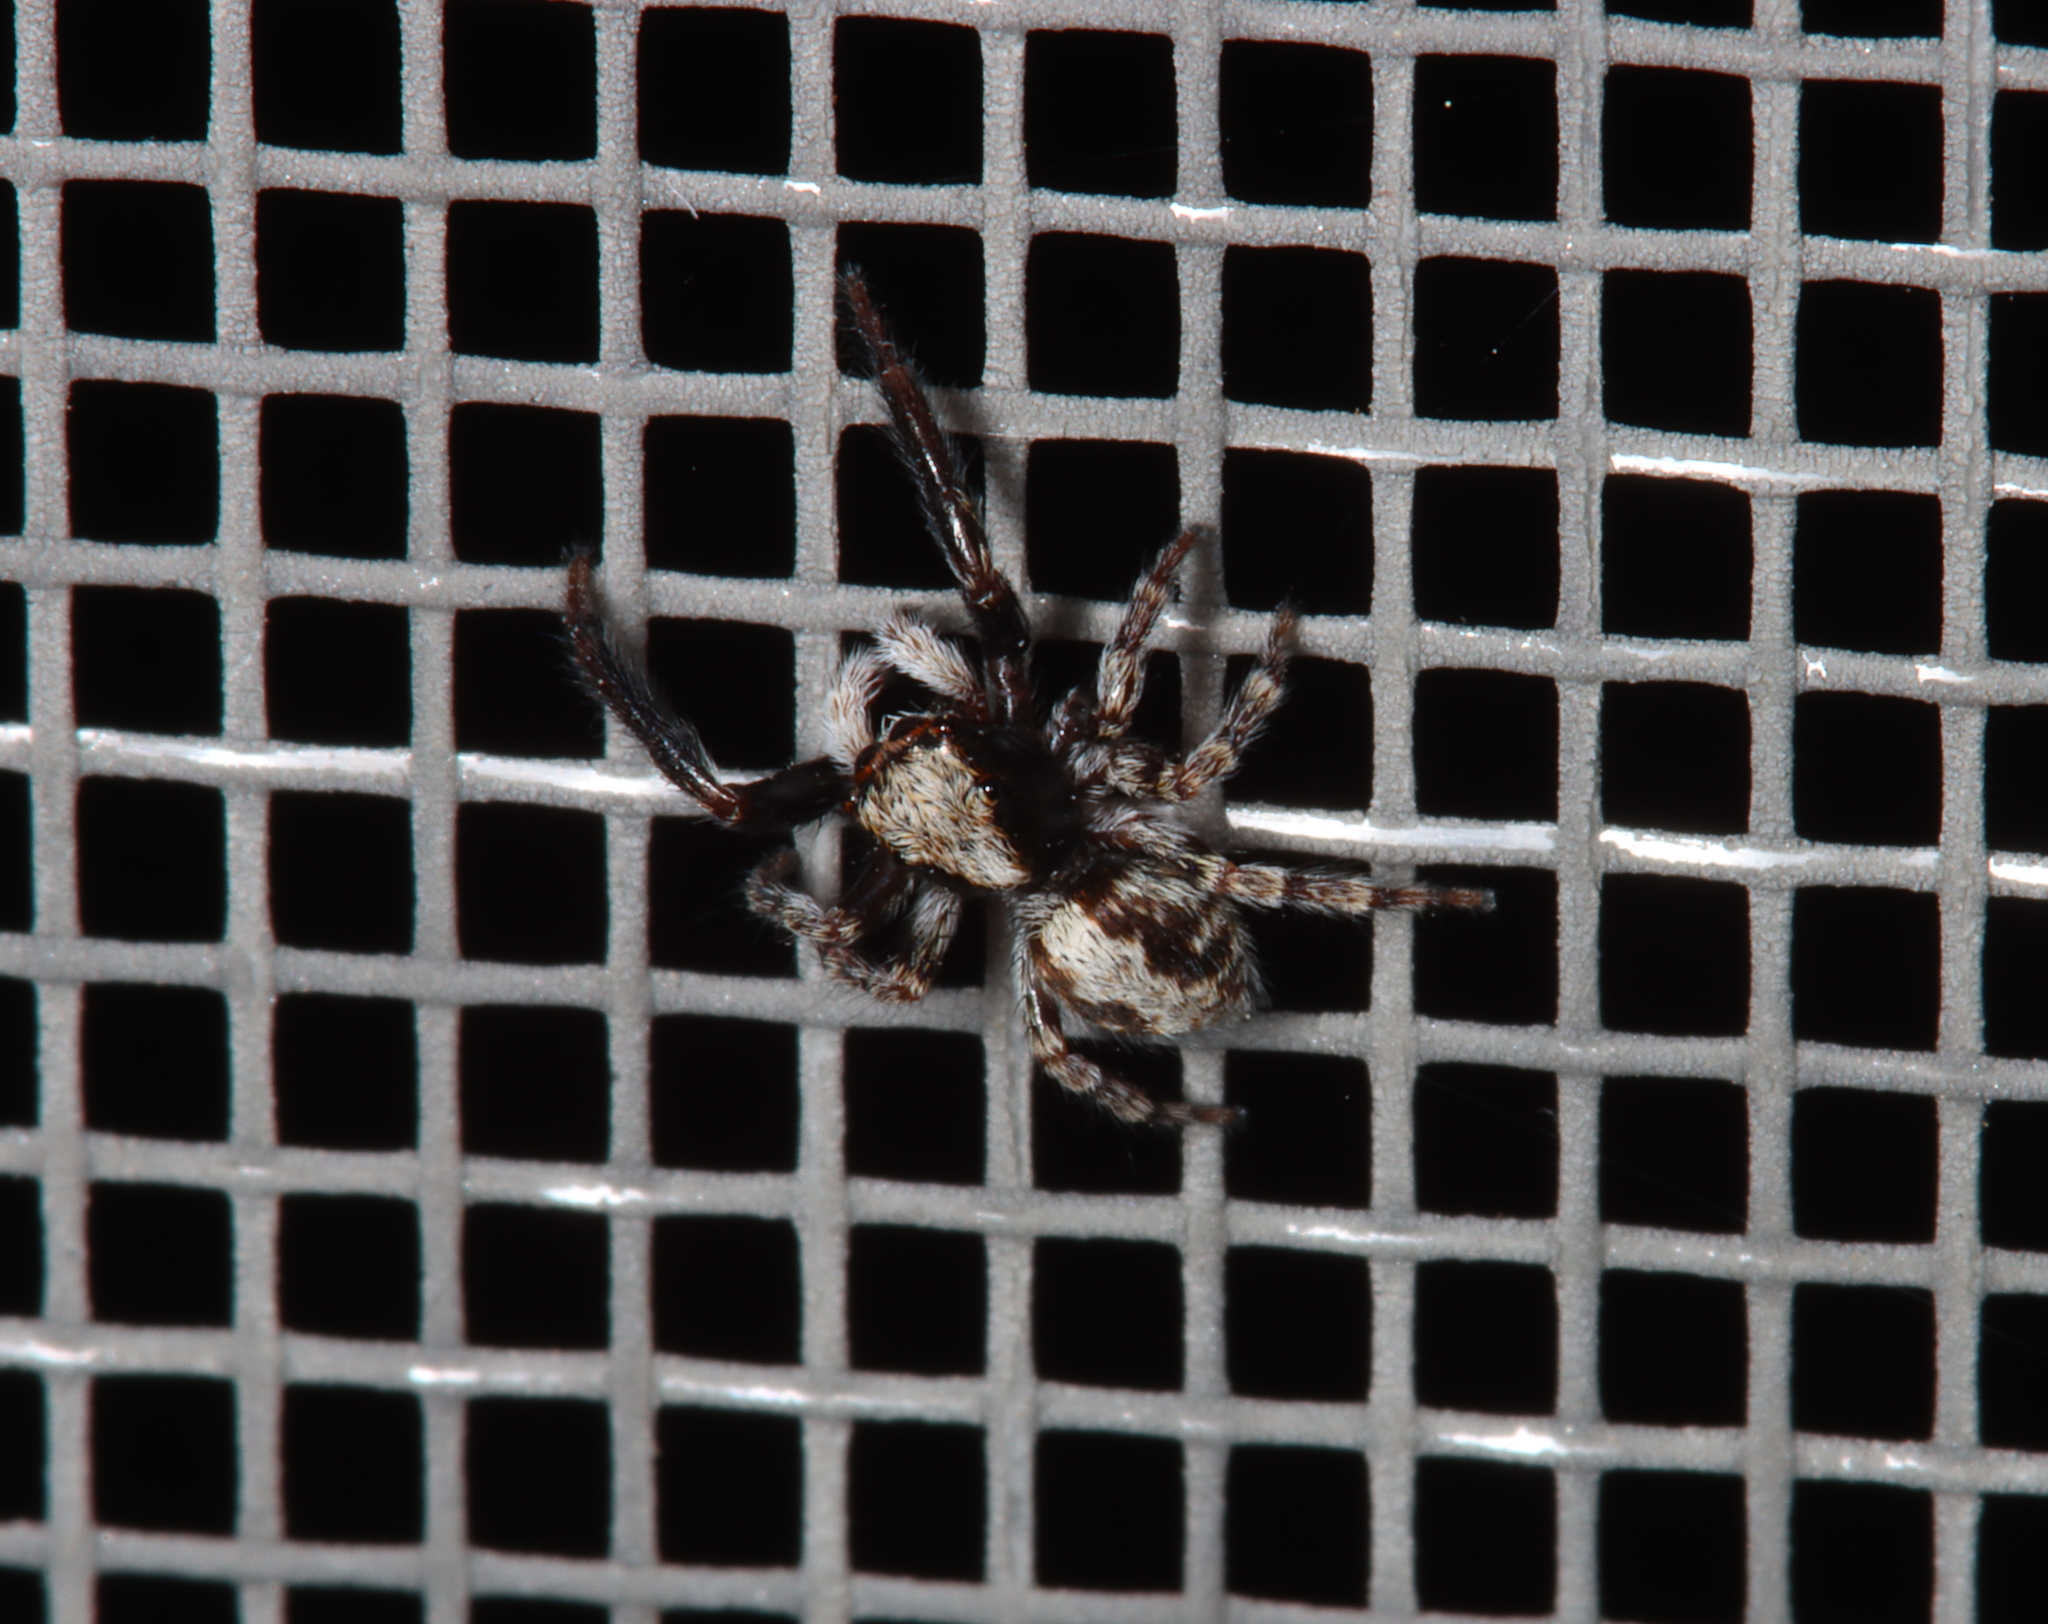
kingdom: Animalia
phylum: Arthropoda
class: Arachnida
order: Araneae
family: Salticidae
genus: Pseudeuophrys
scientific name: Pseudeuophrys lanigera
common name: Jumping spider
